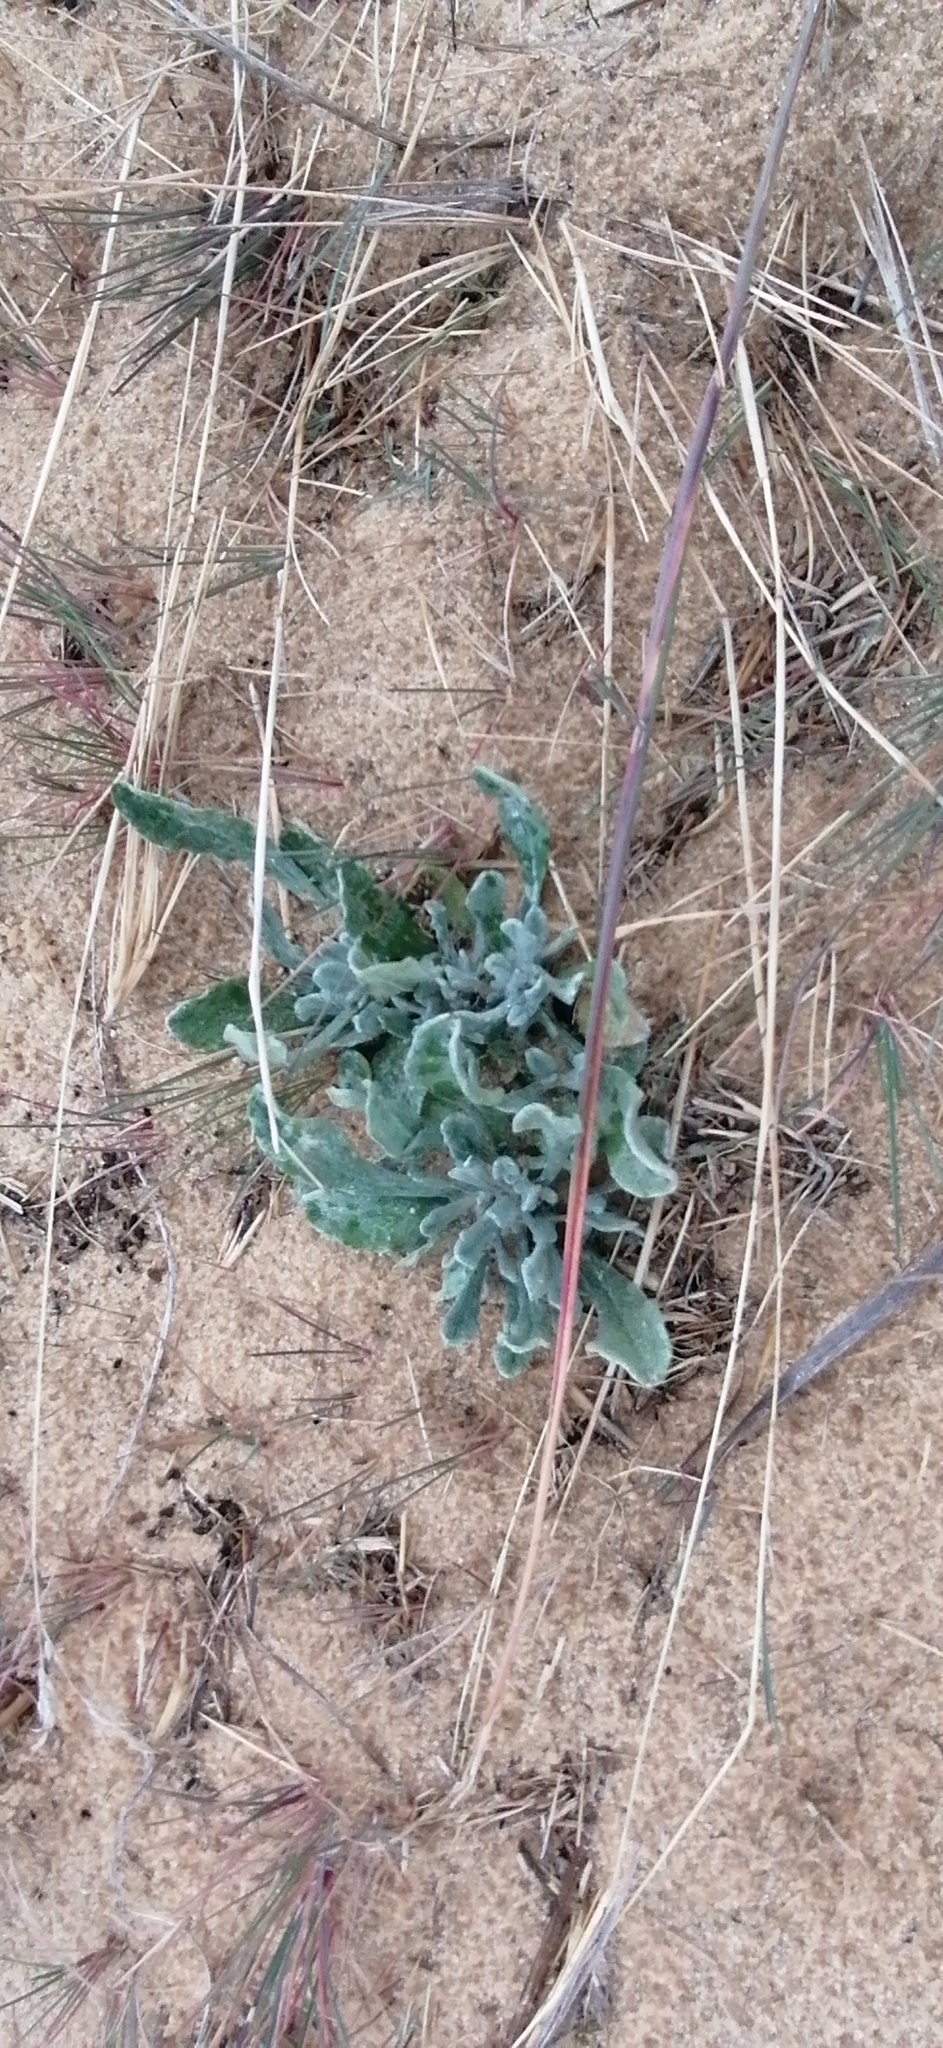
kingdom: Plantae
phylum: Tracheophyta
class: Magnoliopsida
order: Asterales
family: Asteraceae
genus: Helichrysum
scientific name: Helichrysum arenarium
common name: Strawflower
